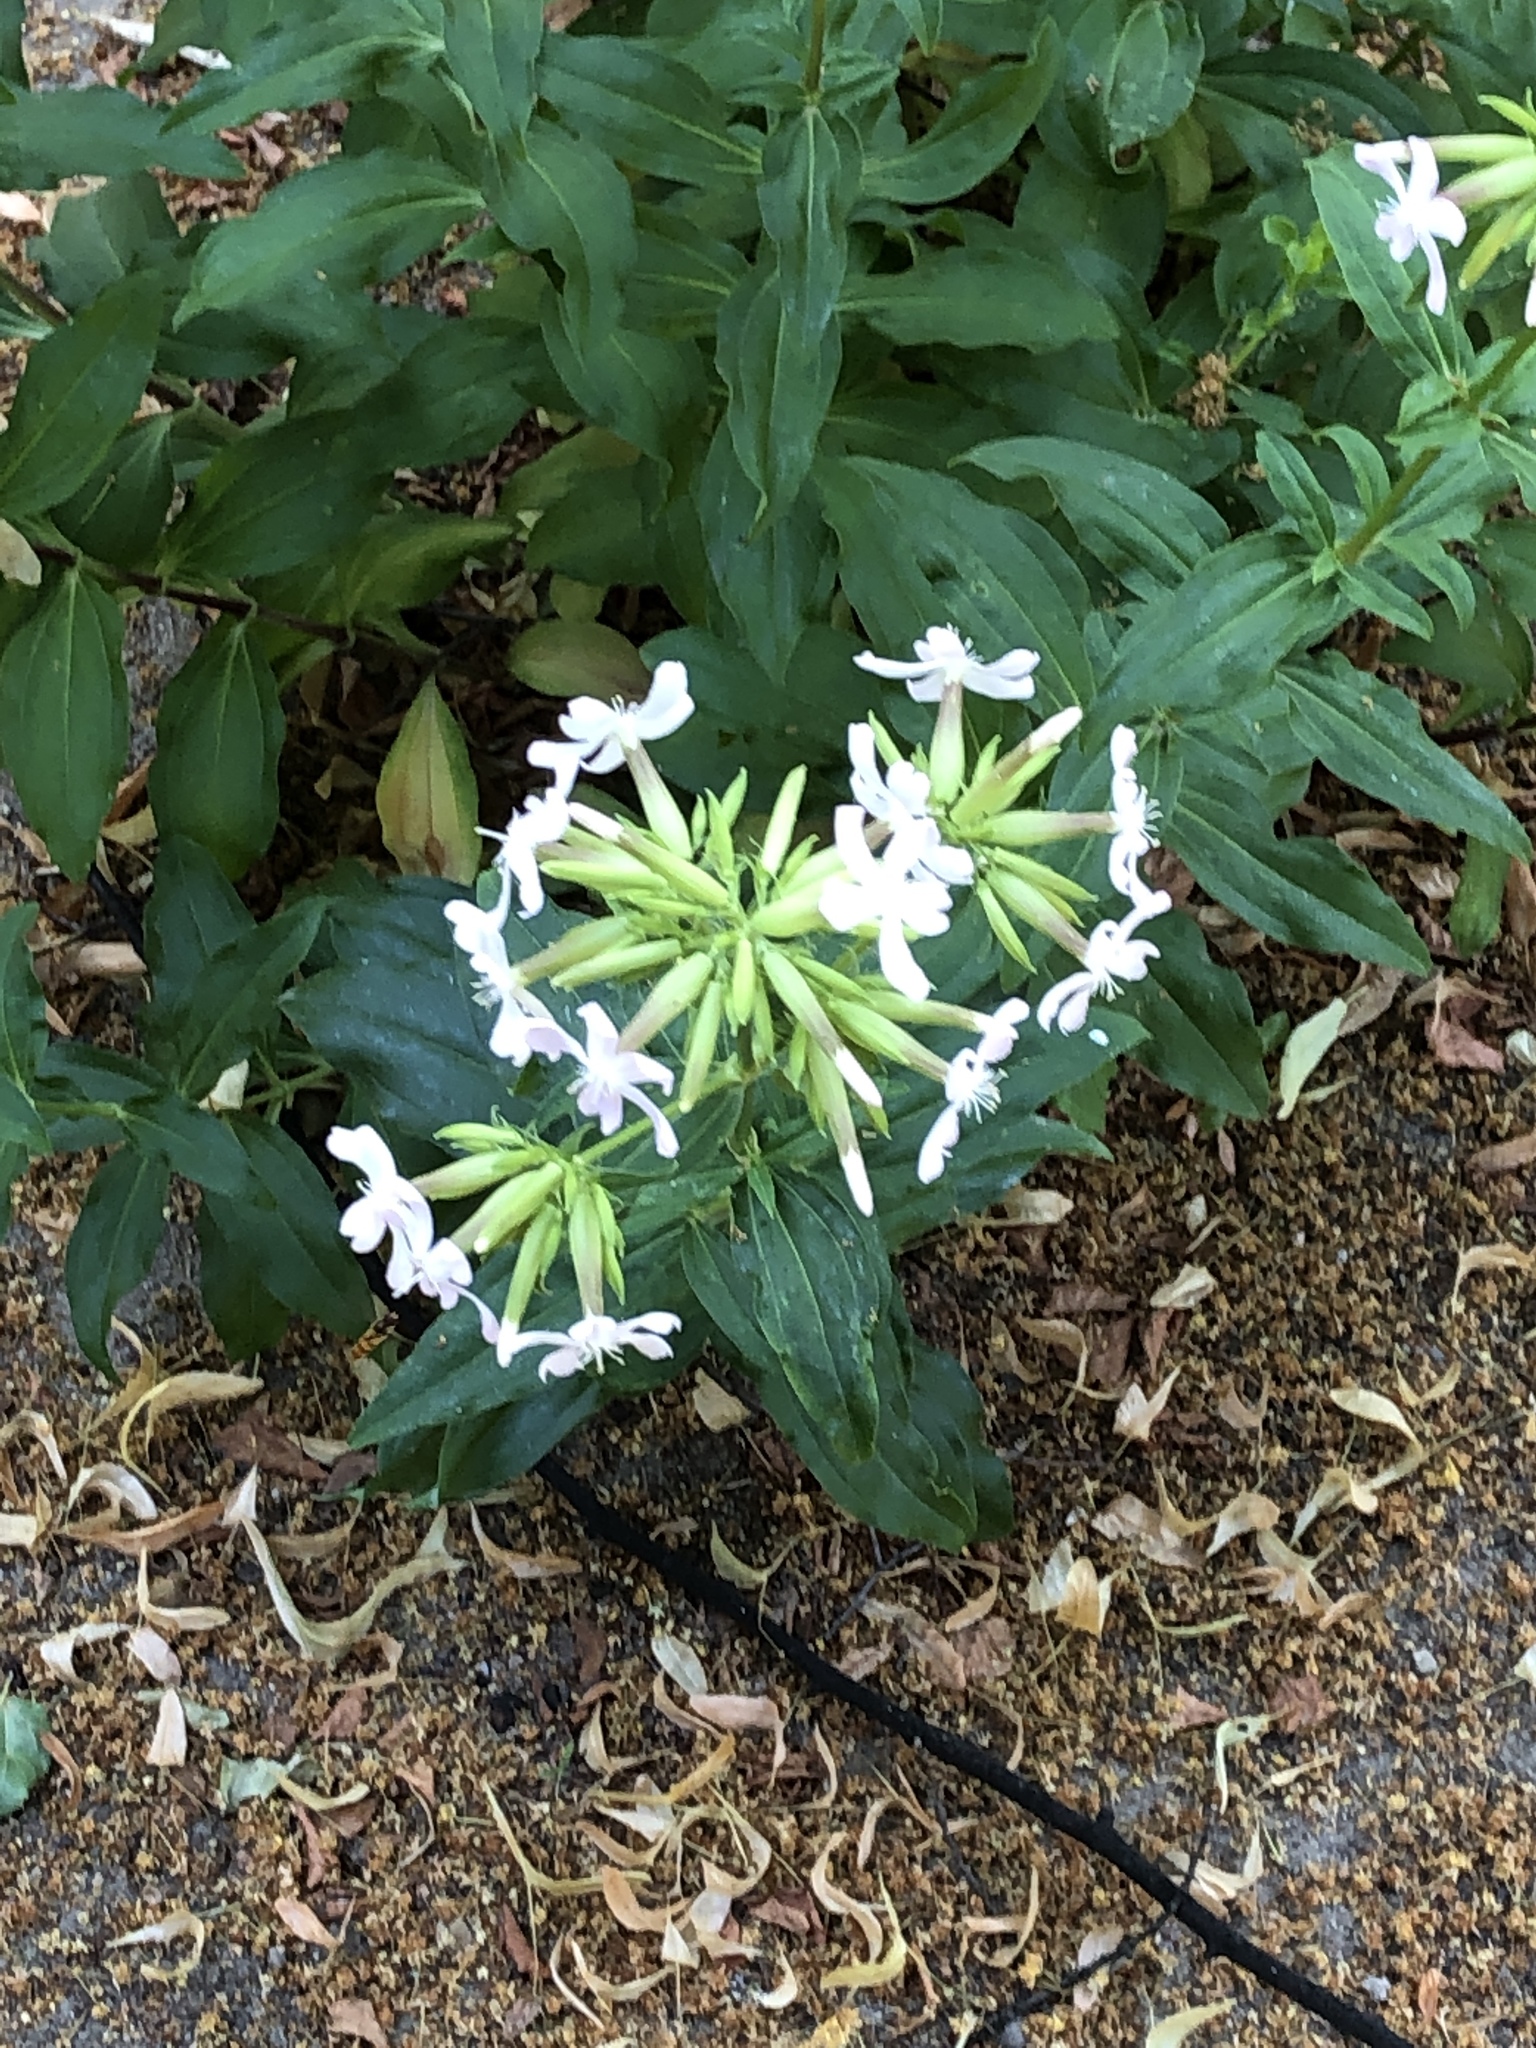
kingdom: Plantae
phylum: Tracheophyta
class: Magnoliopsida
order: Caryophyllales
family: Caryophyllaceae
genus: Saponaria
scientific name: Saponaria officinalis
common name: Soapwort
